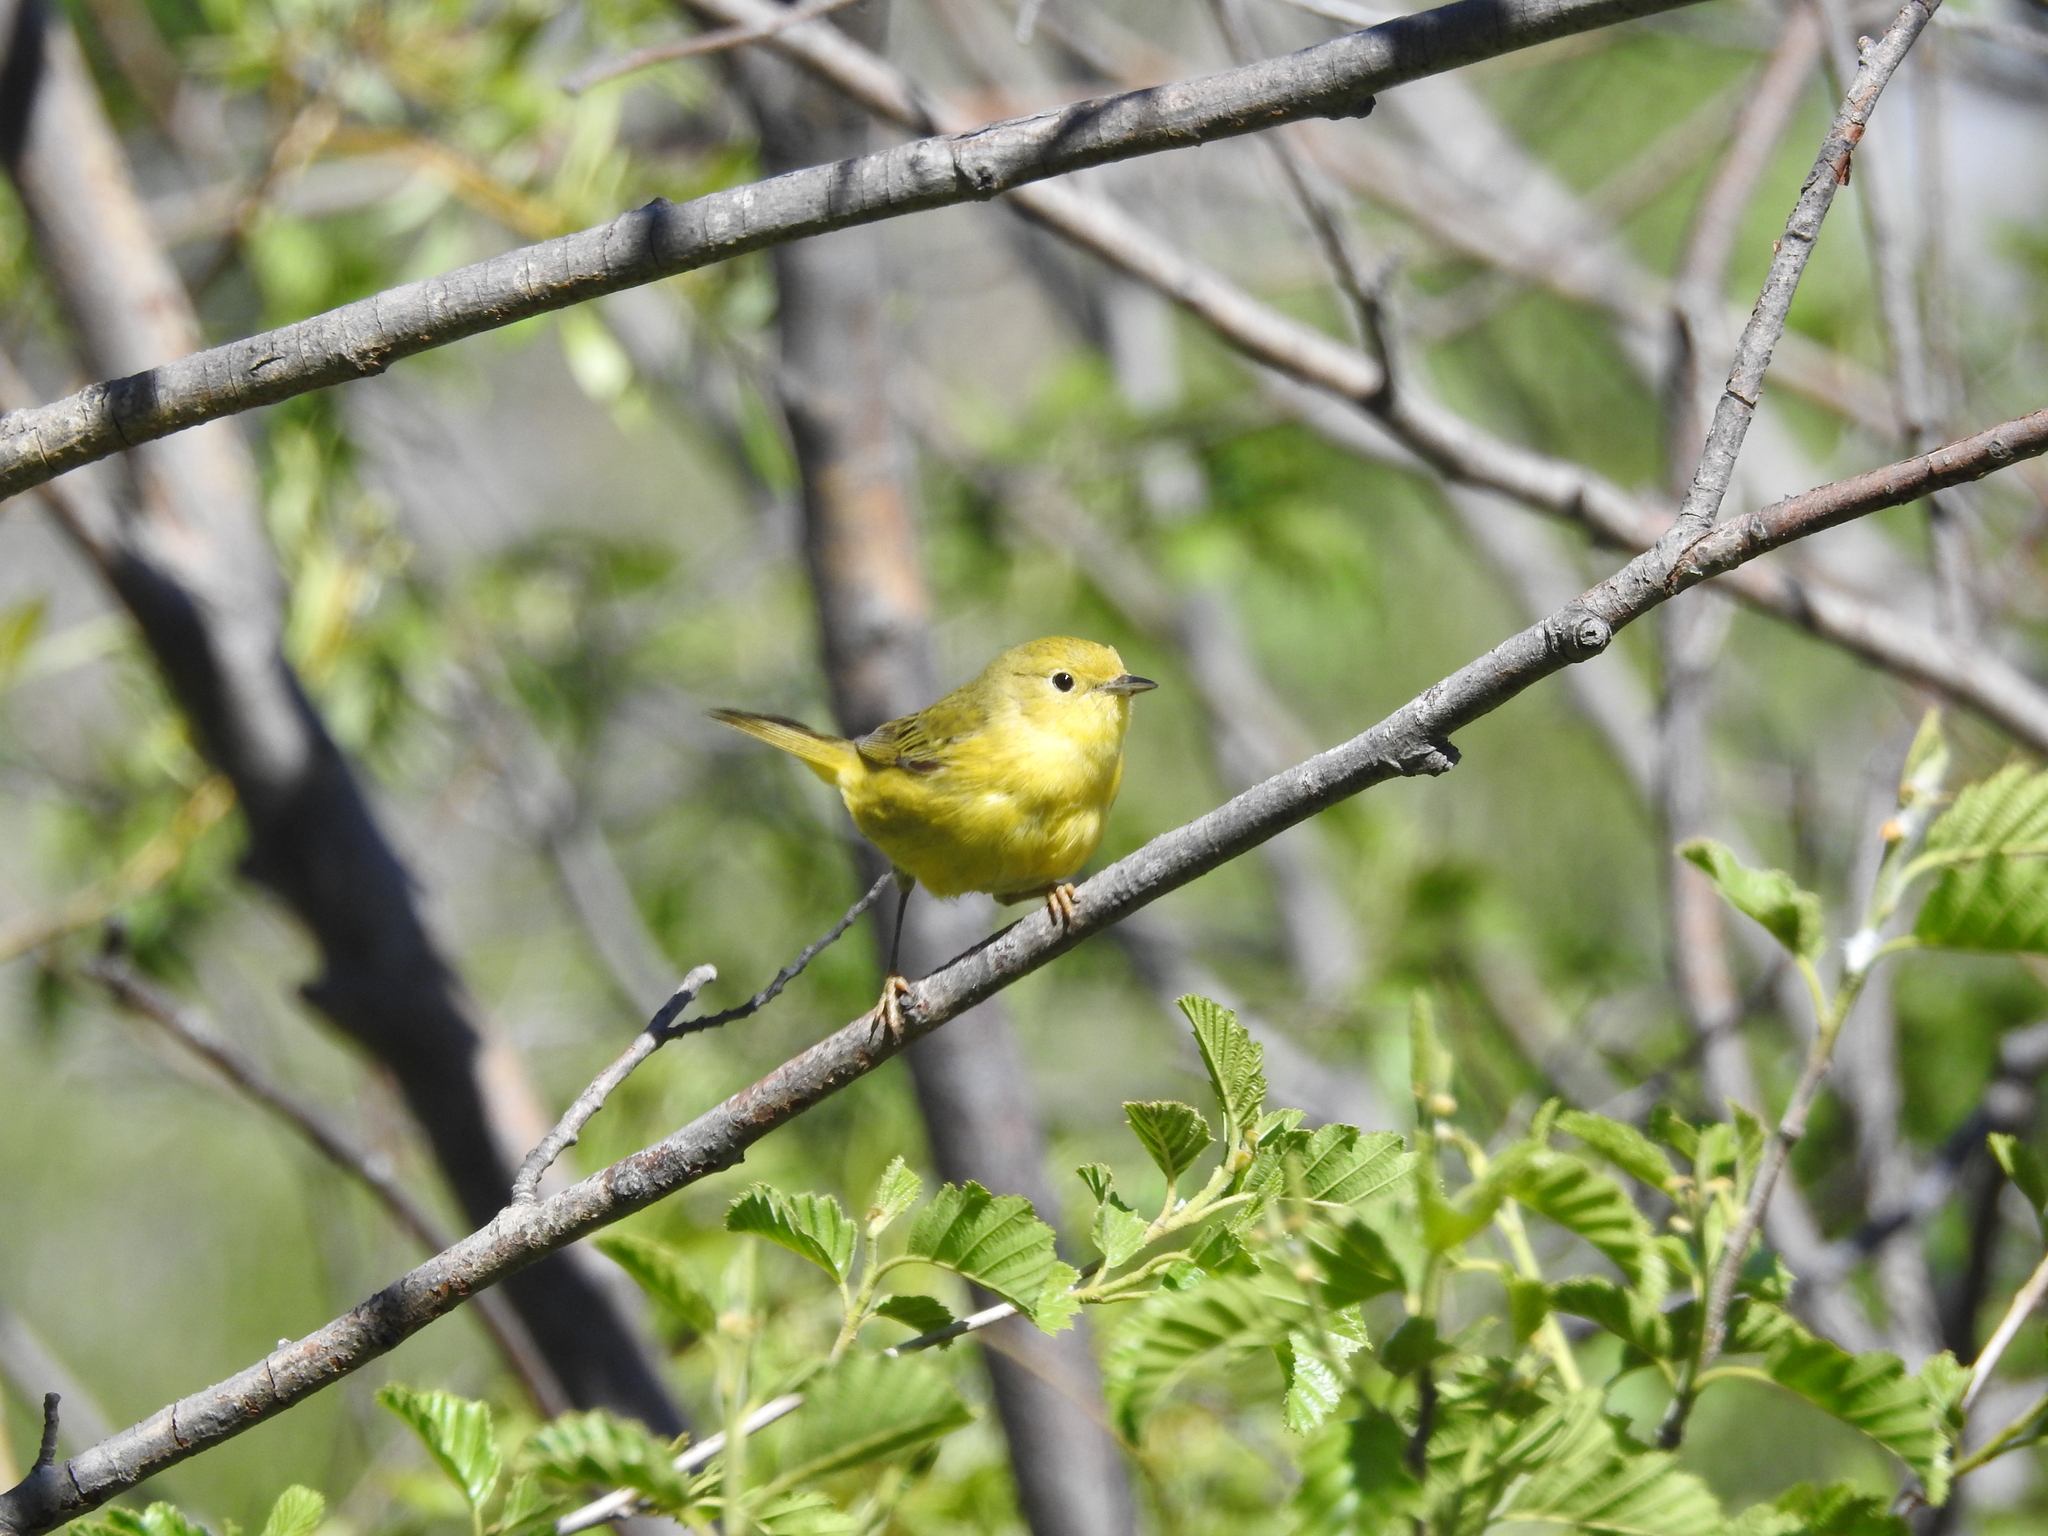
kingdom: Animalia
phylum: Chordata
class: Aves
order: Passeriformes
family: Parulidae
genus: Setophaga
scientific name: Setophaga petechia
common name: Yellow warbler
